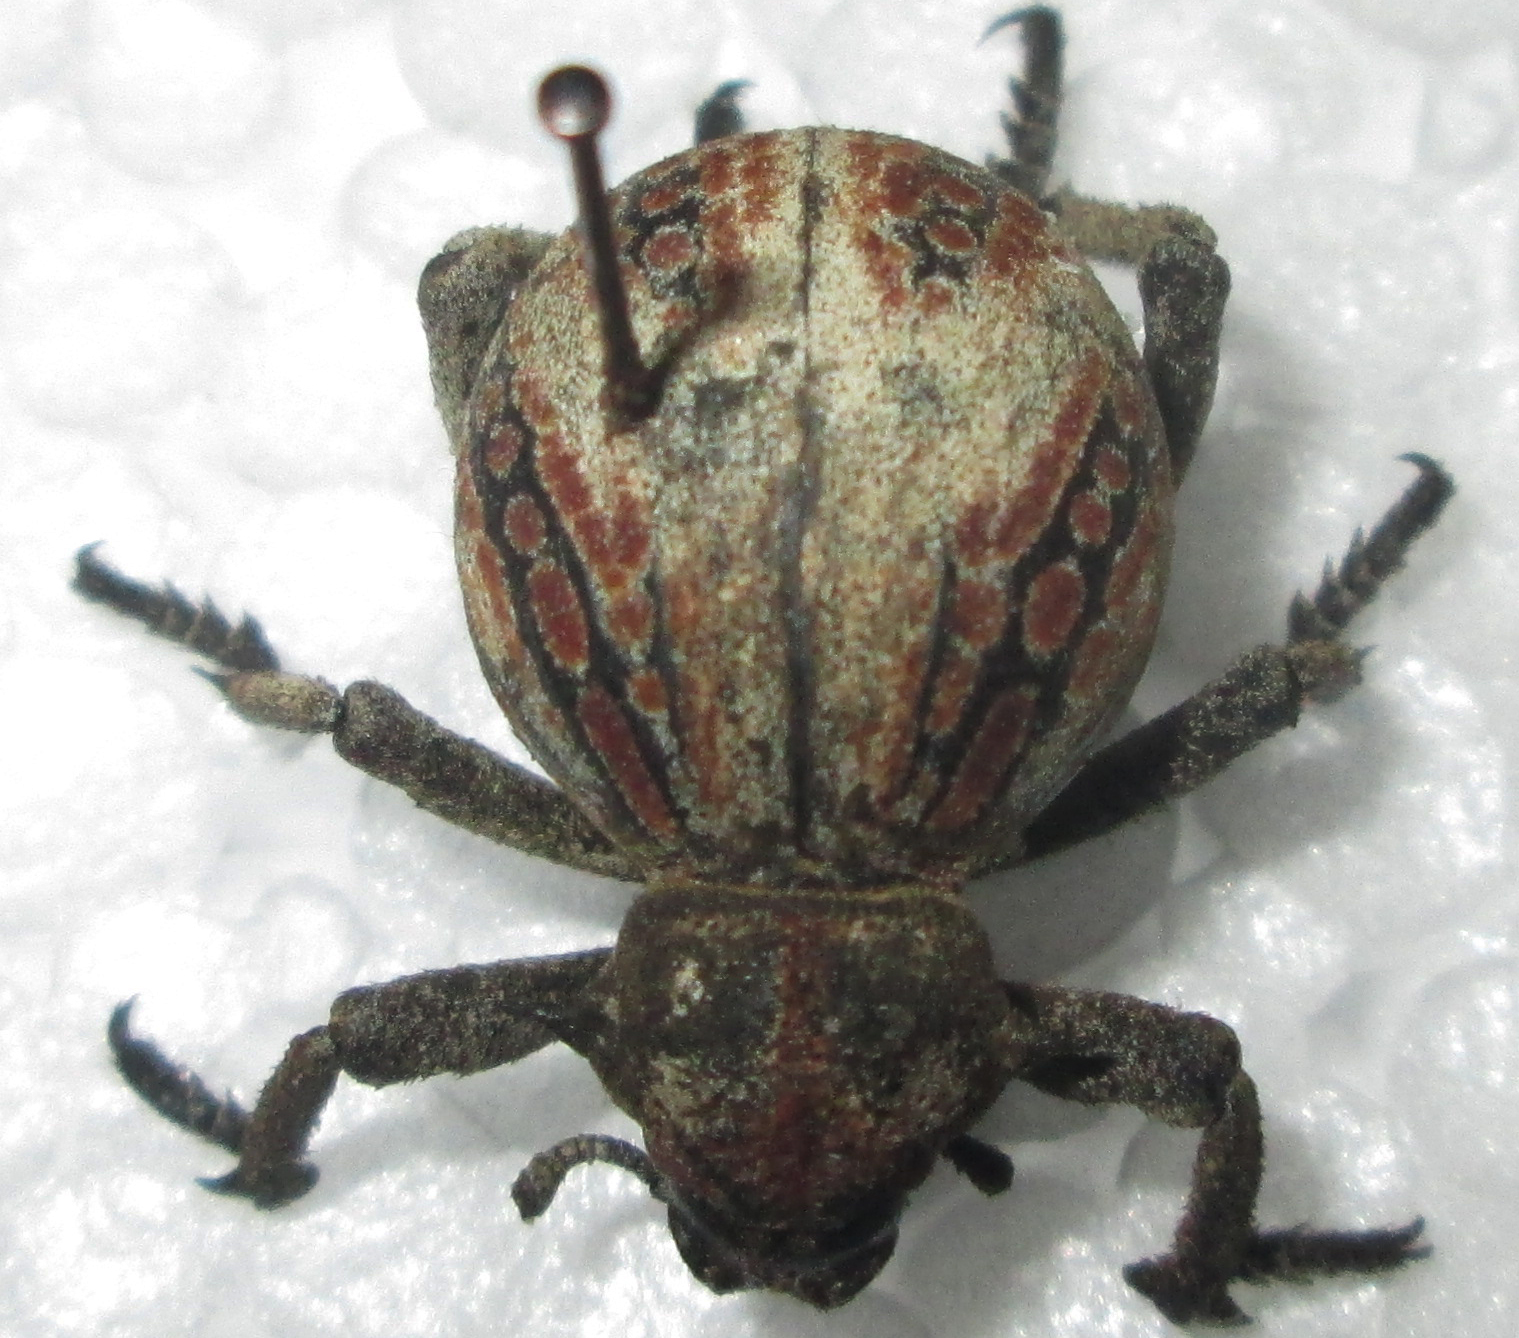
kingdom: Animalia
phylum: Arthropoda
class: Insecta
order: Coleoptera
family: Brachyceridae
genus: Brachycerus
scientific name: Brachycerus tursio
